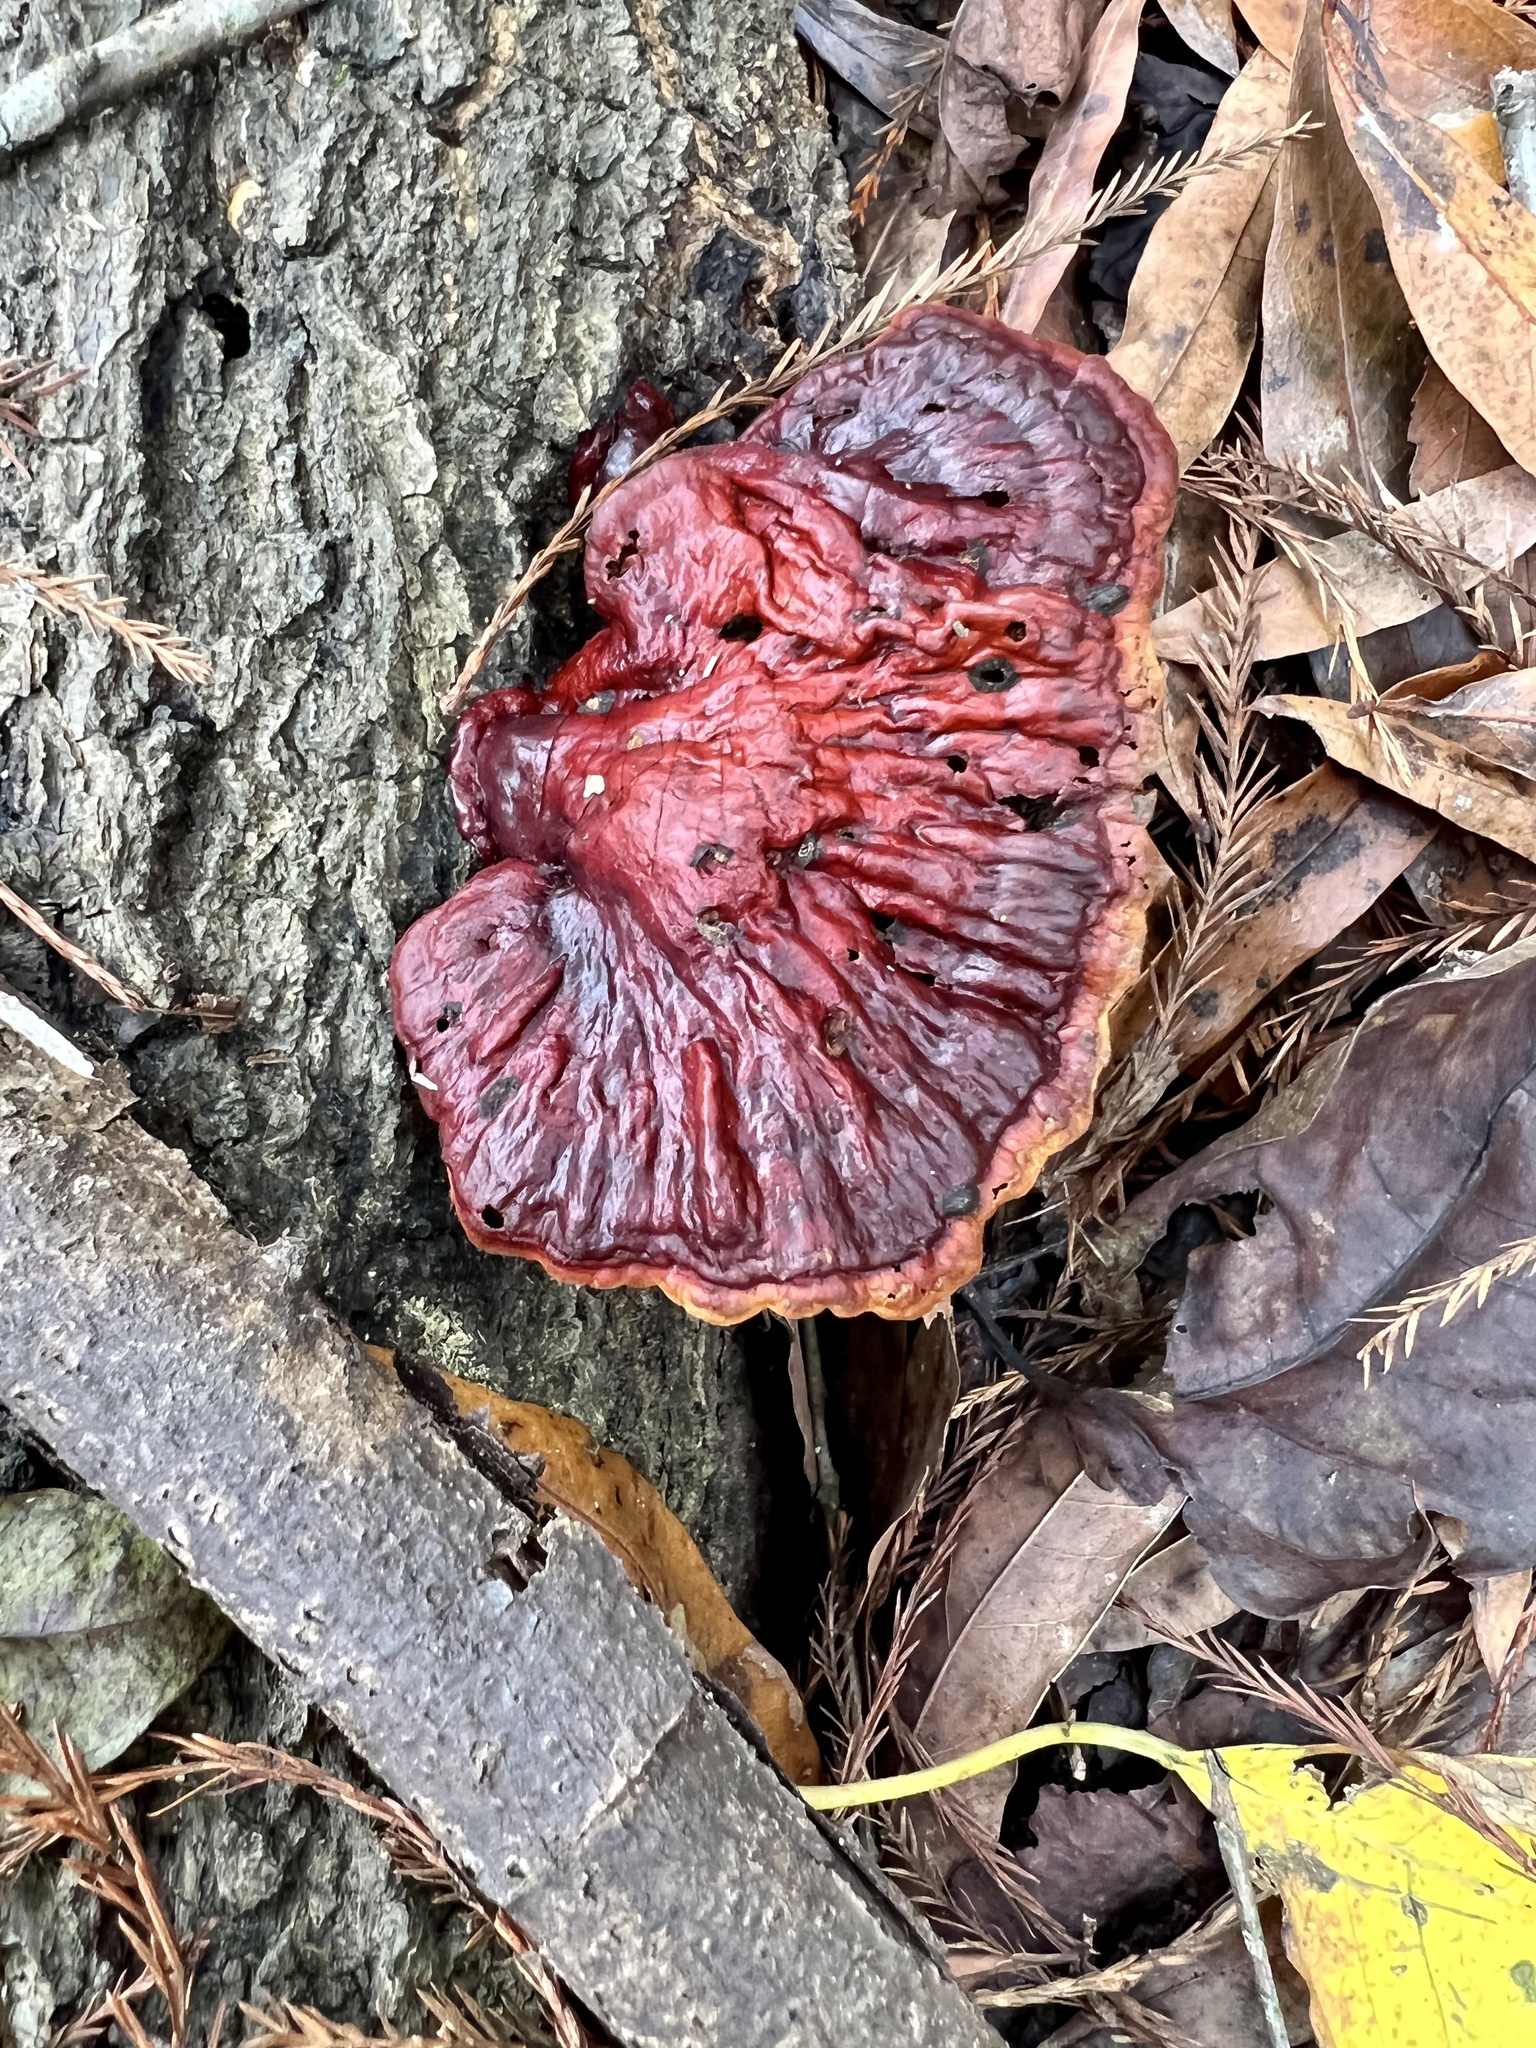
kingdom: Fungi
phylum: Basidiomycota
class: Agaricomycetes
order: Polyporales
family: Polyporaceae
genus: Ganoderma
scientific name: Ganoderma resinaceum
